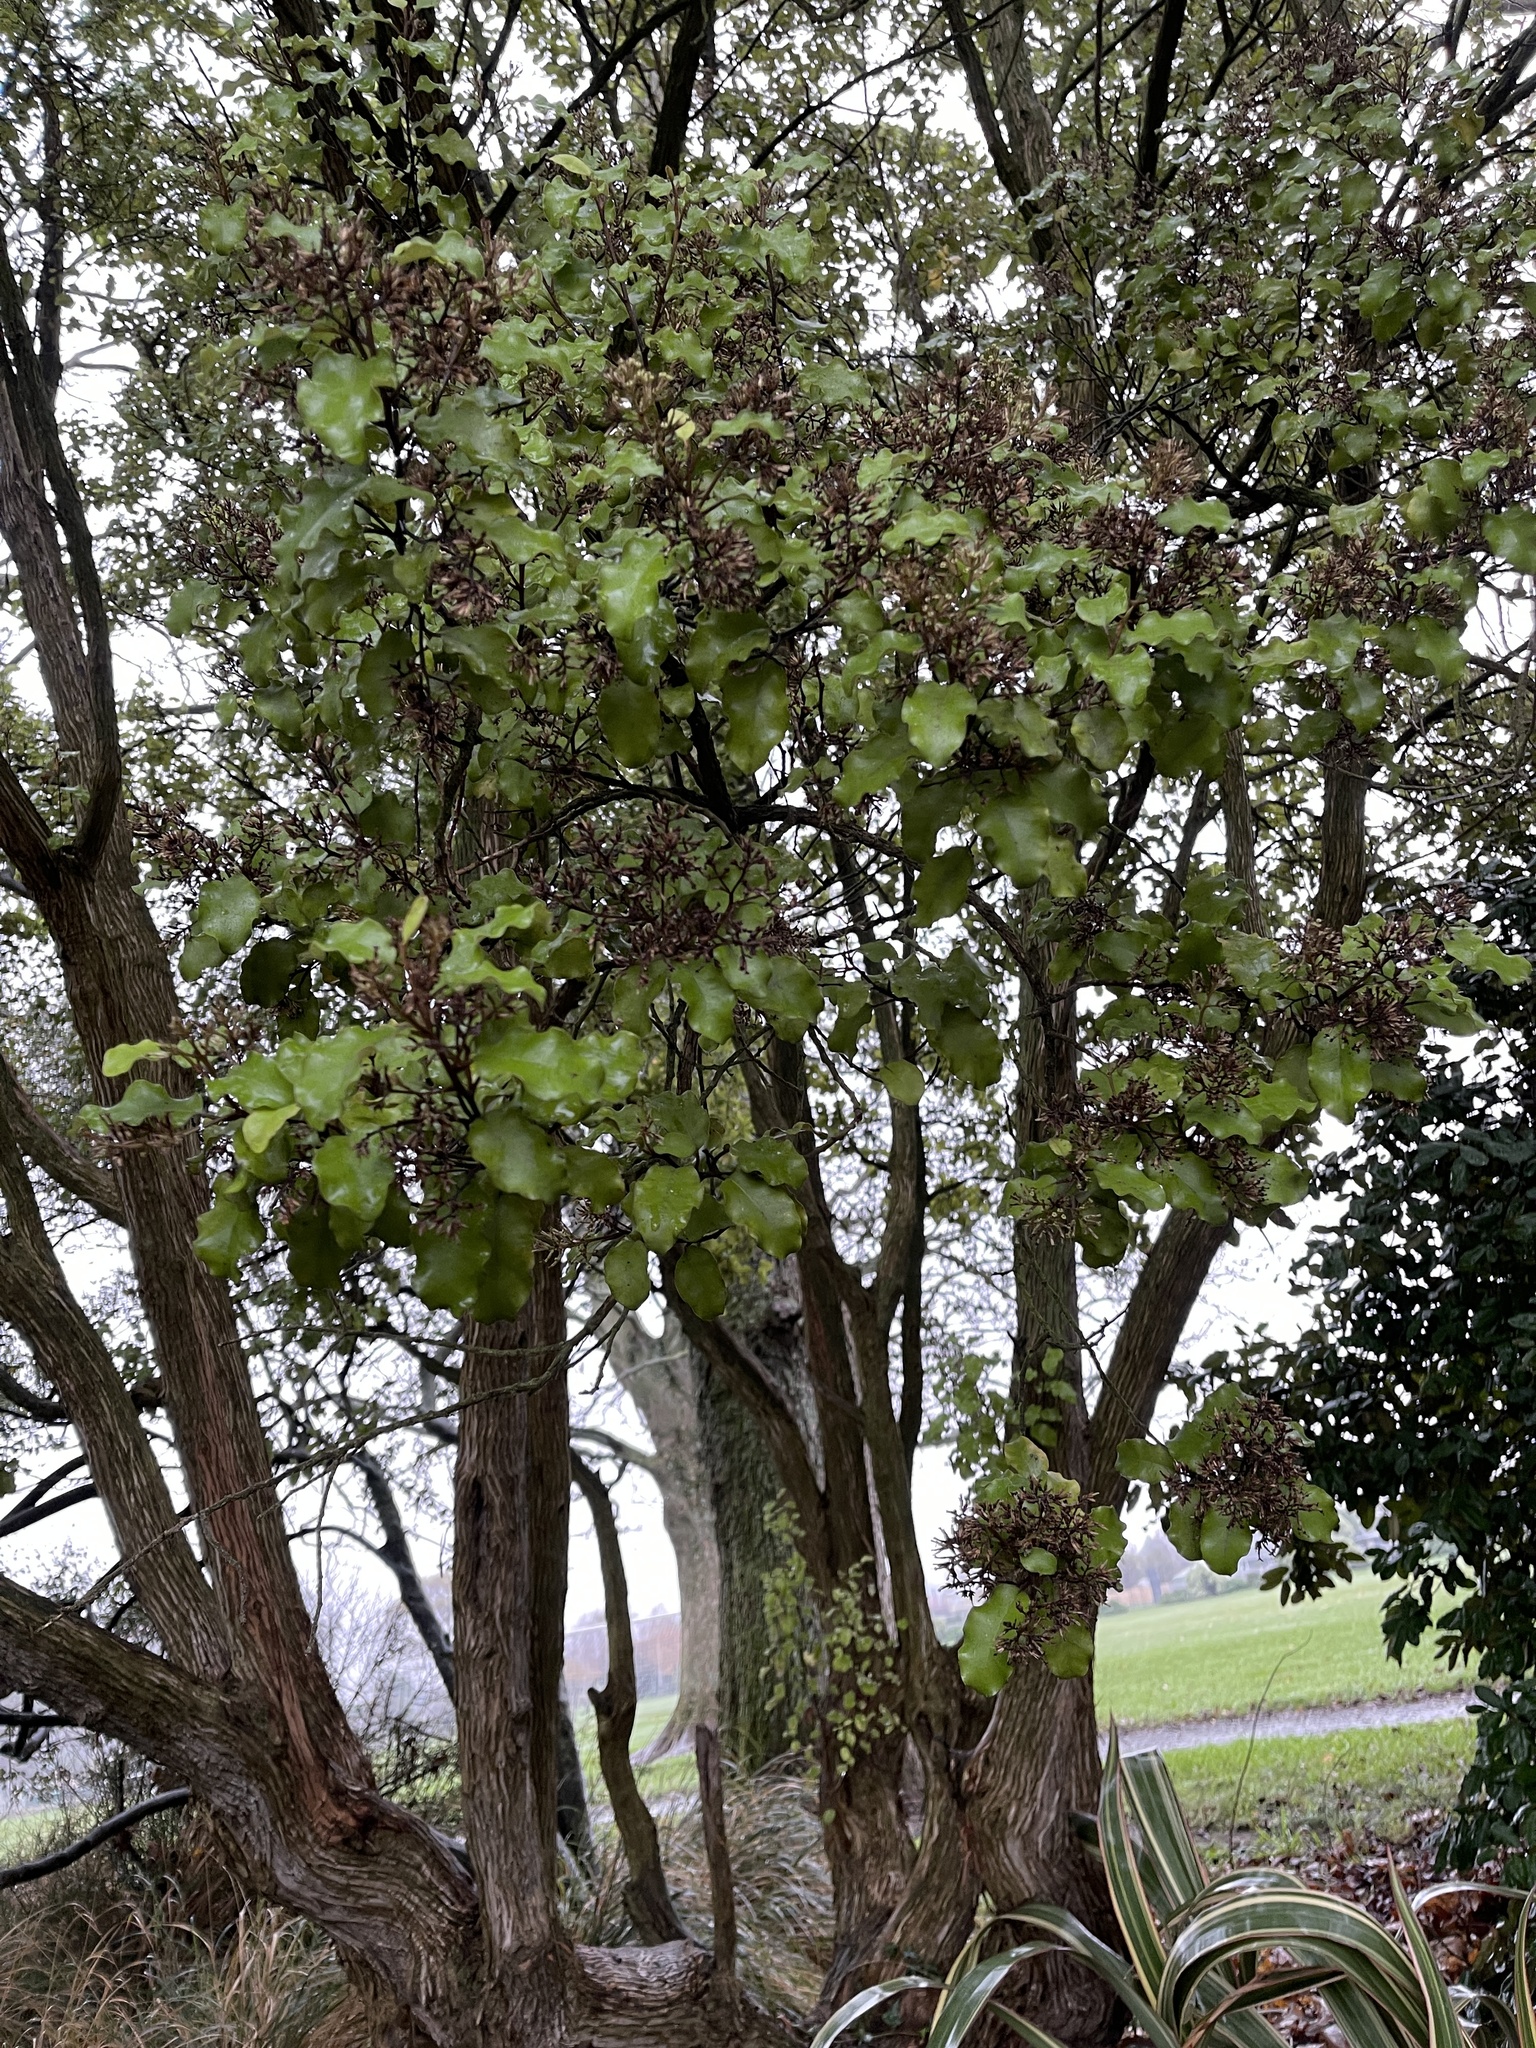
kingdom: Plantae
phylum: Tracheophyta
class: Magnoliopsida
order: Asterales
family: Asteraceae
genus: Olearia
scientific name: Olearia paniculata
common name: Akiraho
